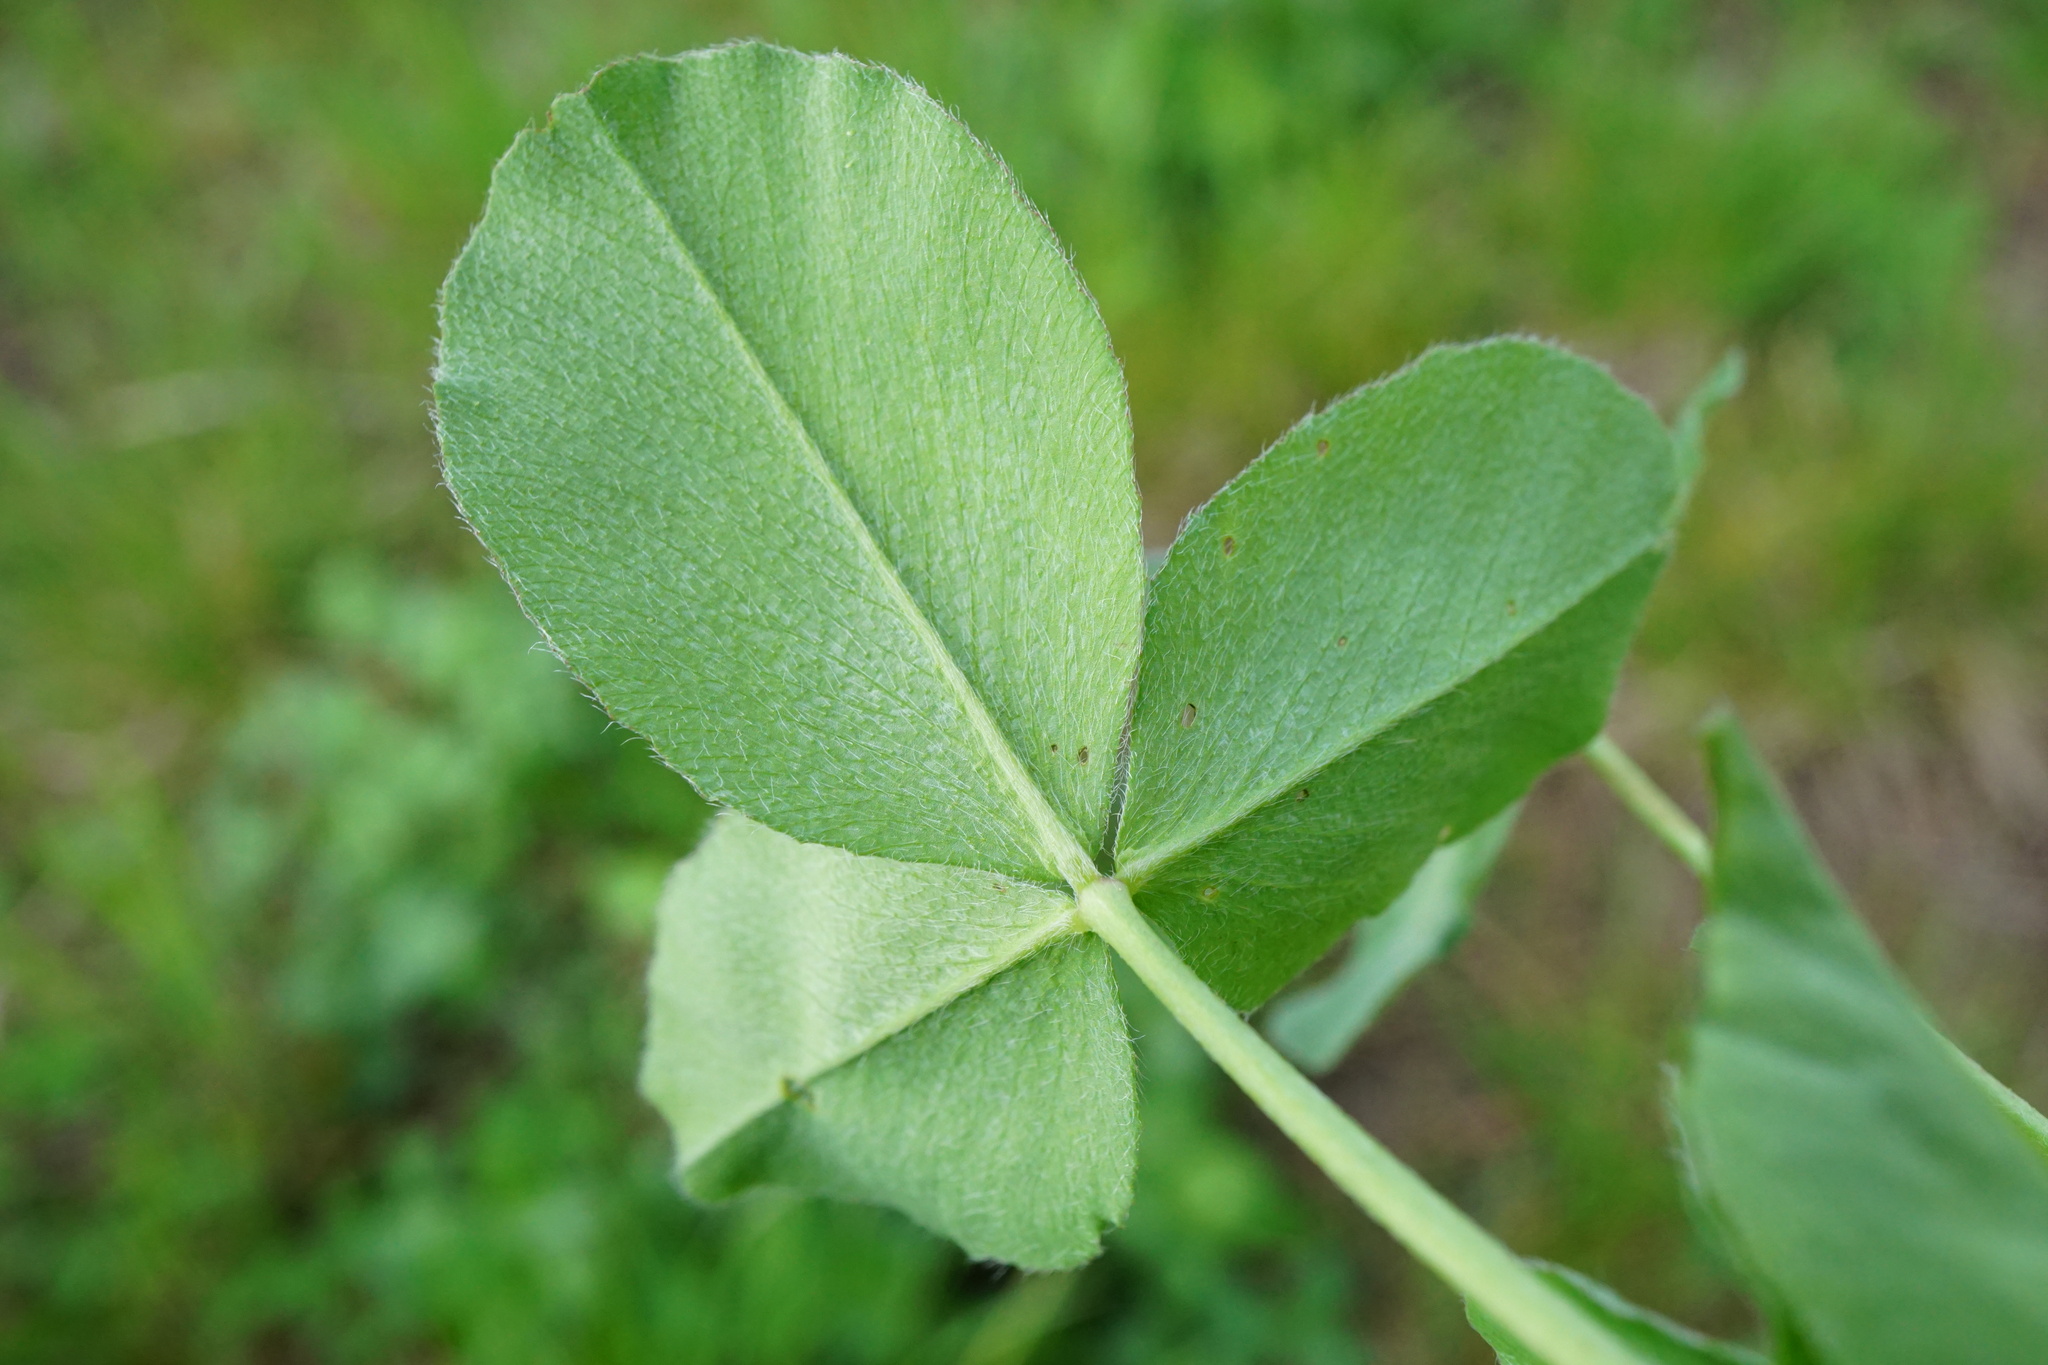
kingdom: Plantae
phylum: Tracheophyta
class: Magnoliopsida
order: Fabales
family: Fabaceae
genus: Trifolium
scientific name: Trifolium pratense
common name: Red clover
